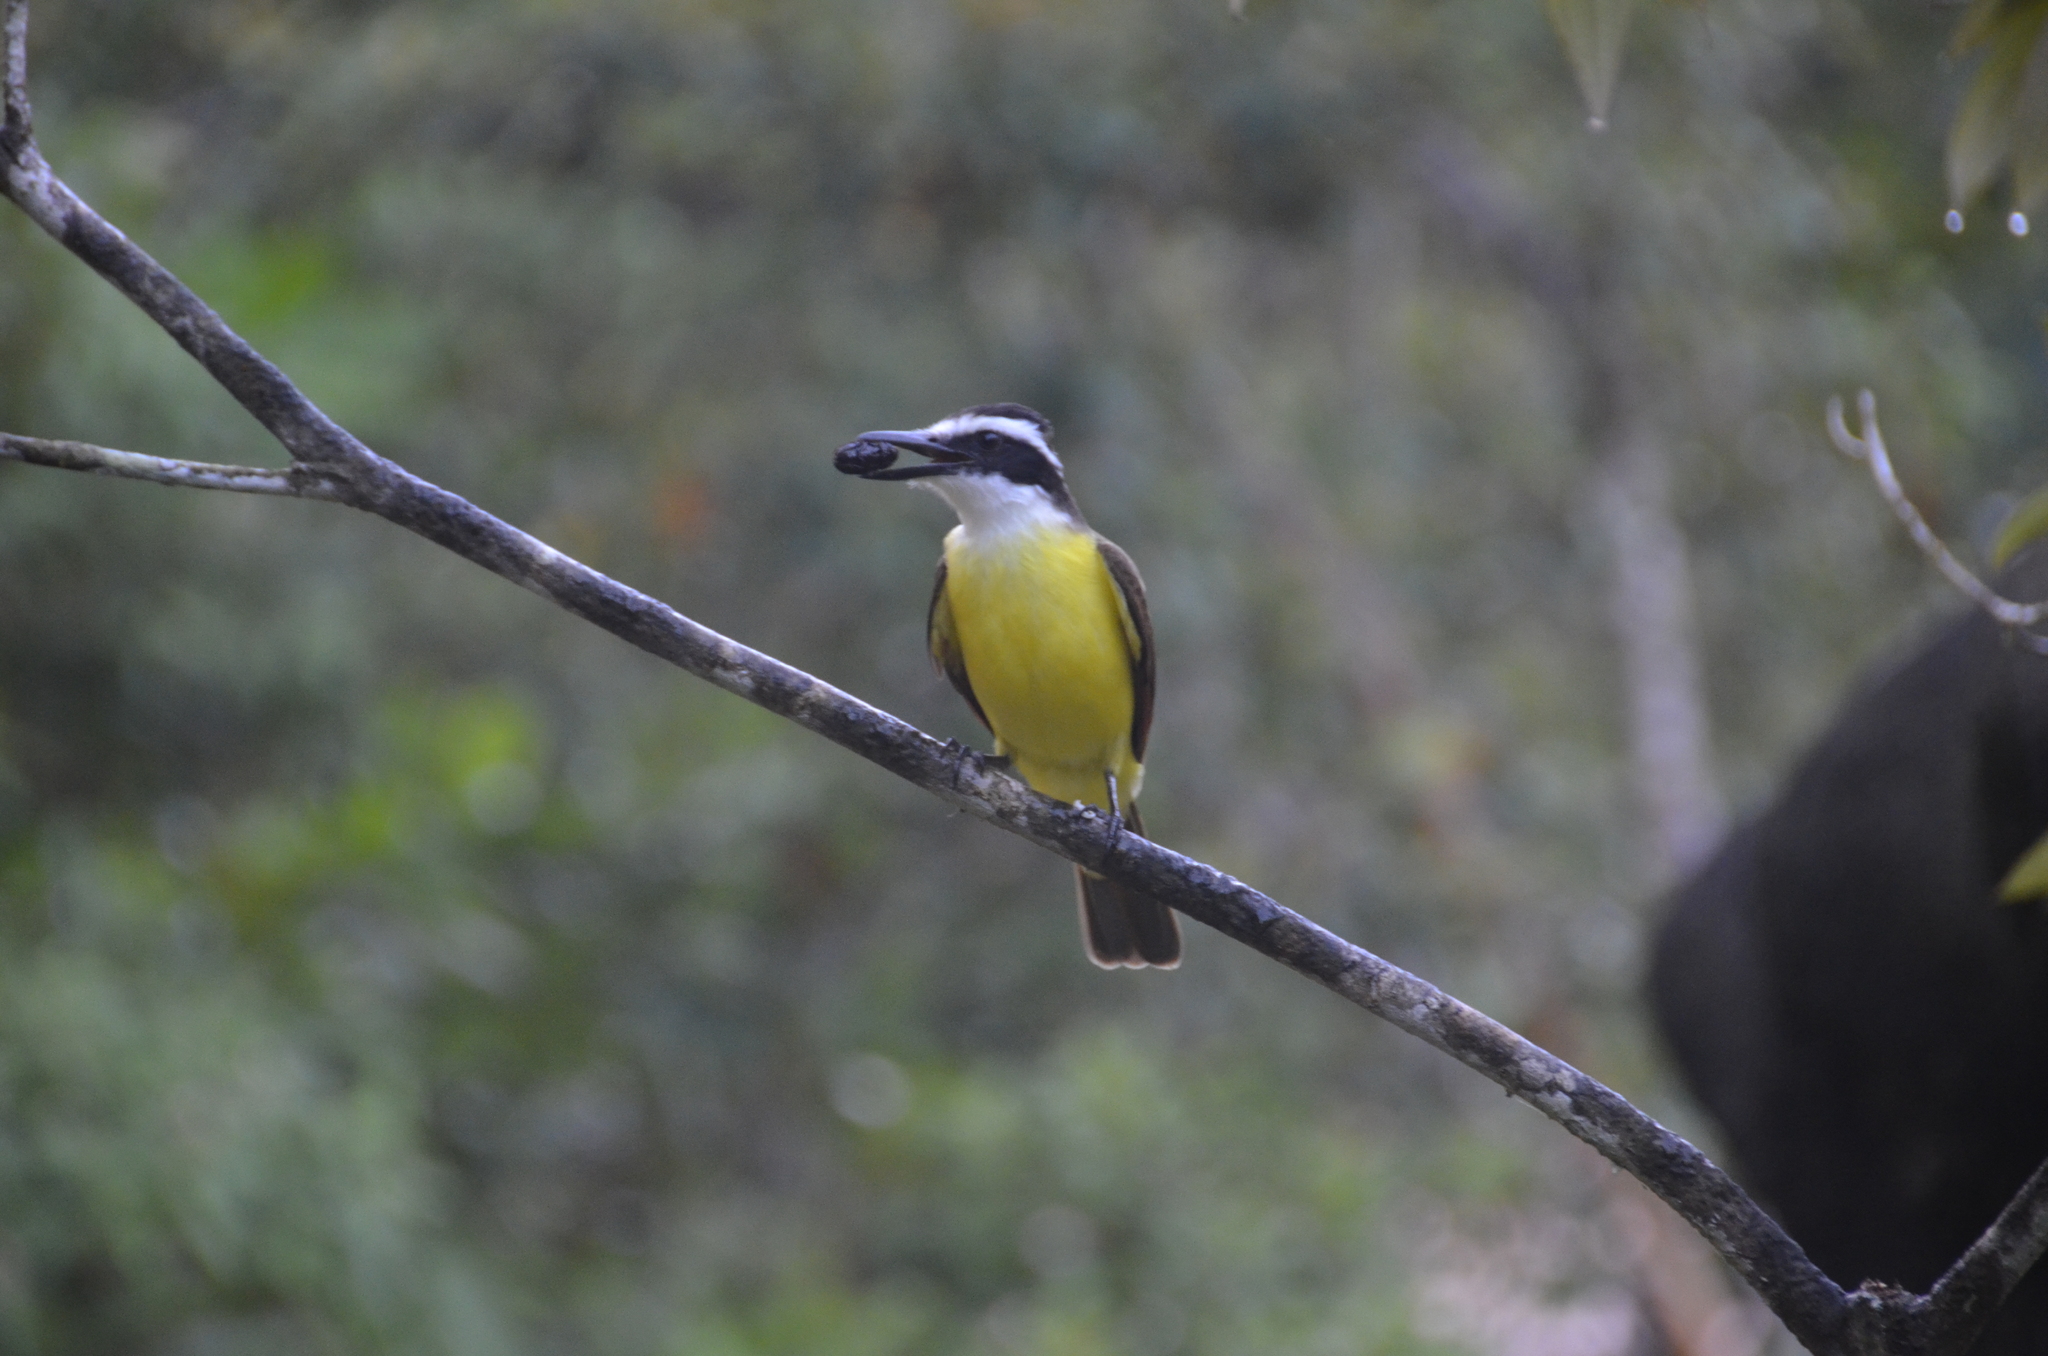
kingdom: Animalia
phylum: Chordata
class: Aves
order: Passeriformes
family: Tyrannidae
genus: Megarynchus
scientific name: Megarynchus pitangua
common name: Boat-billed flycatcher
